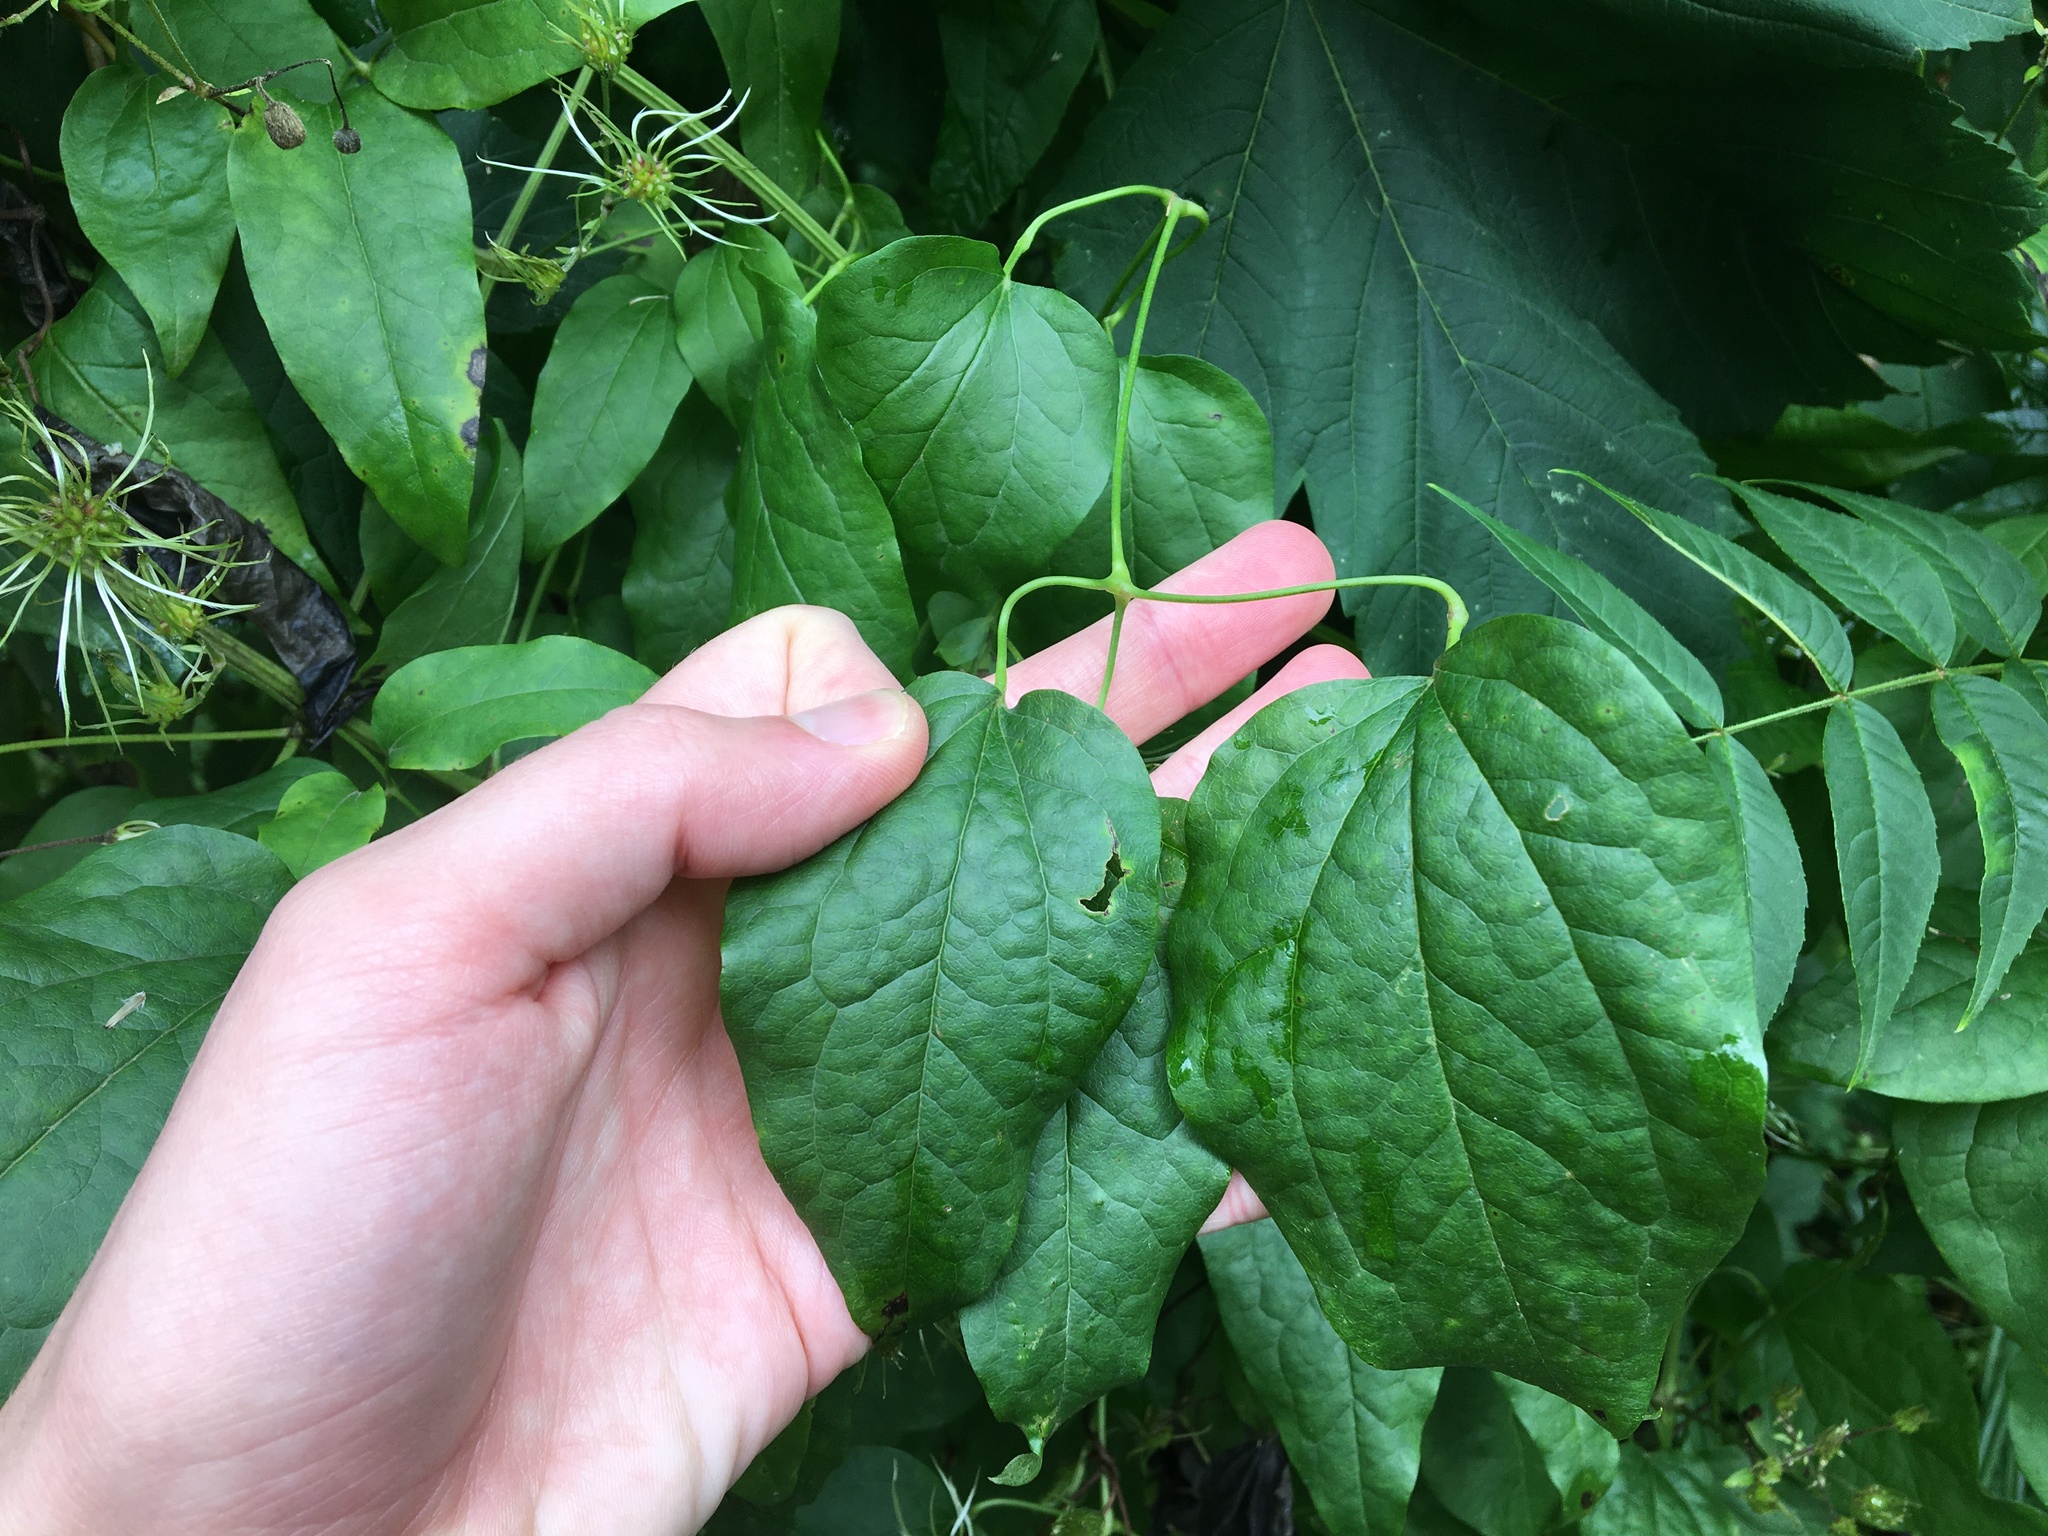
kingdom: Plantae
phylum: Tracheophyta
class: Magnoliopsida
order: Ranunculales
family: Ranunculaceae
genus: Clematis
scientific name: Clematis vitalba
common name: Evergreen clematis
